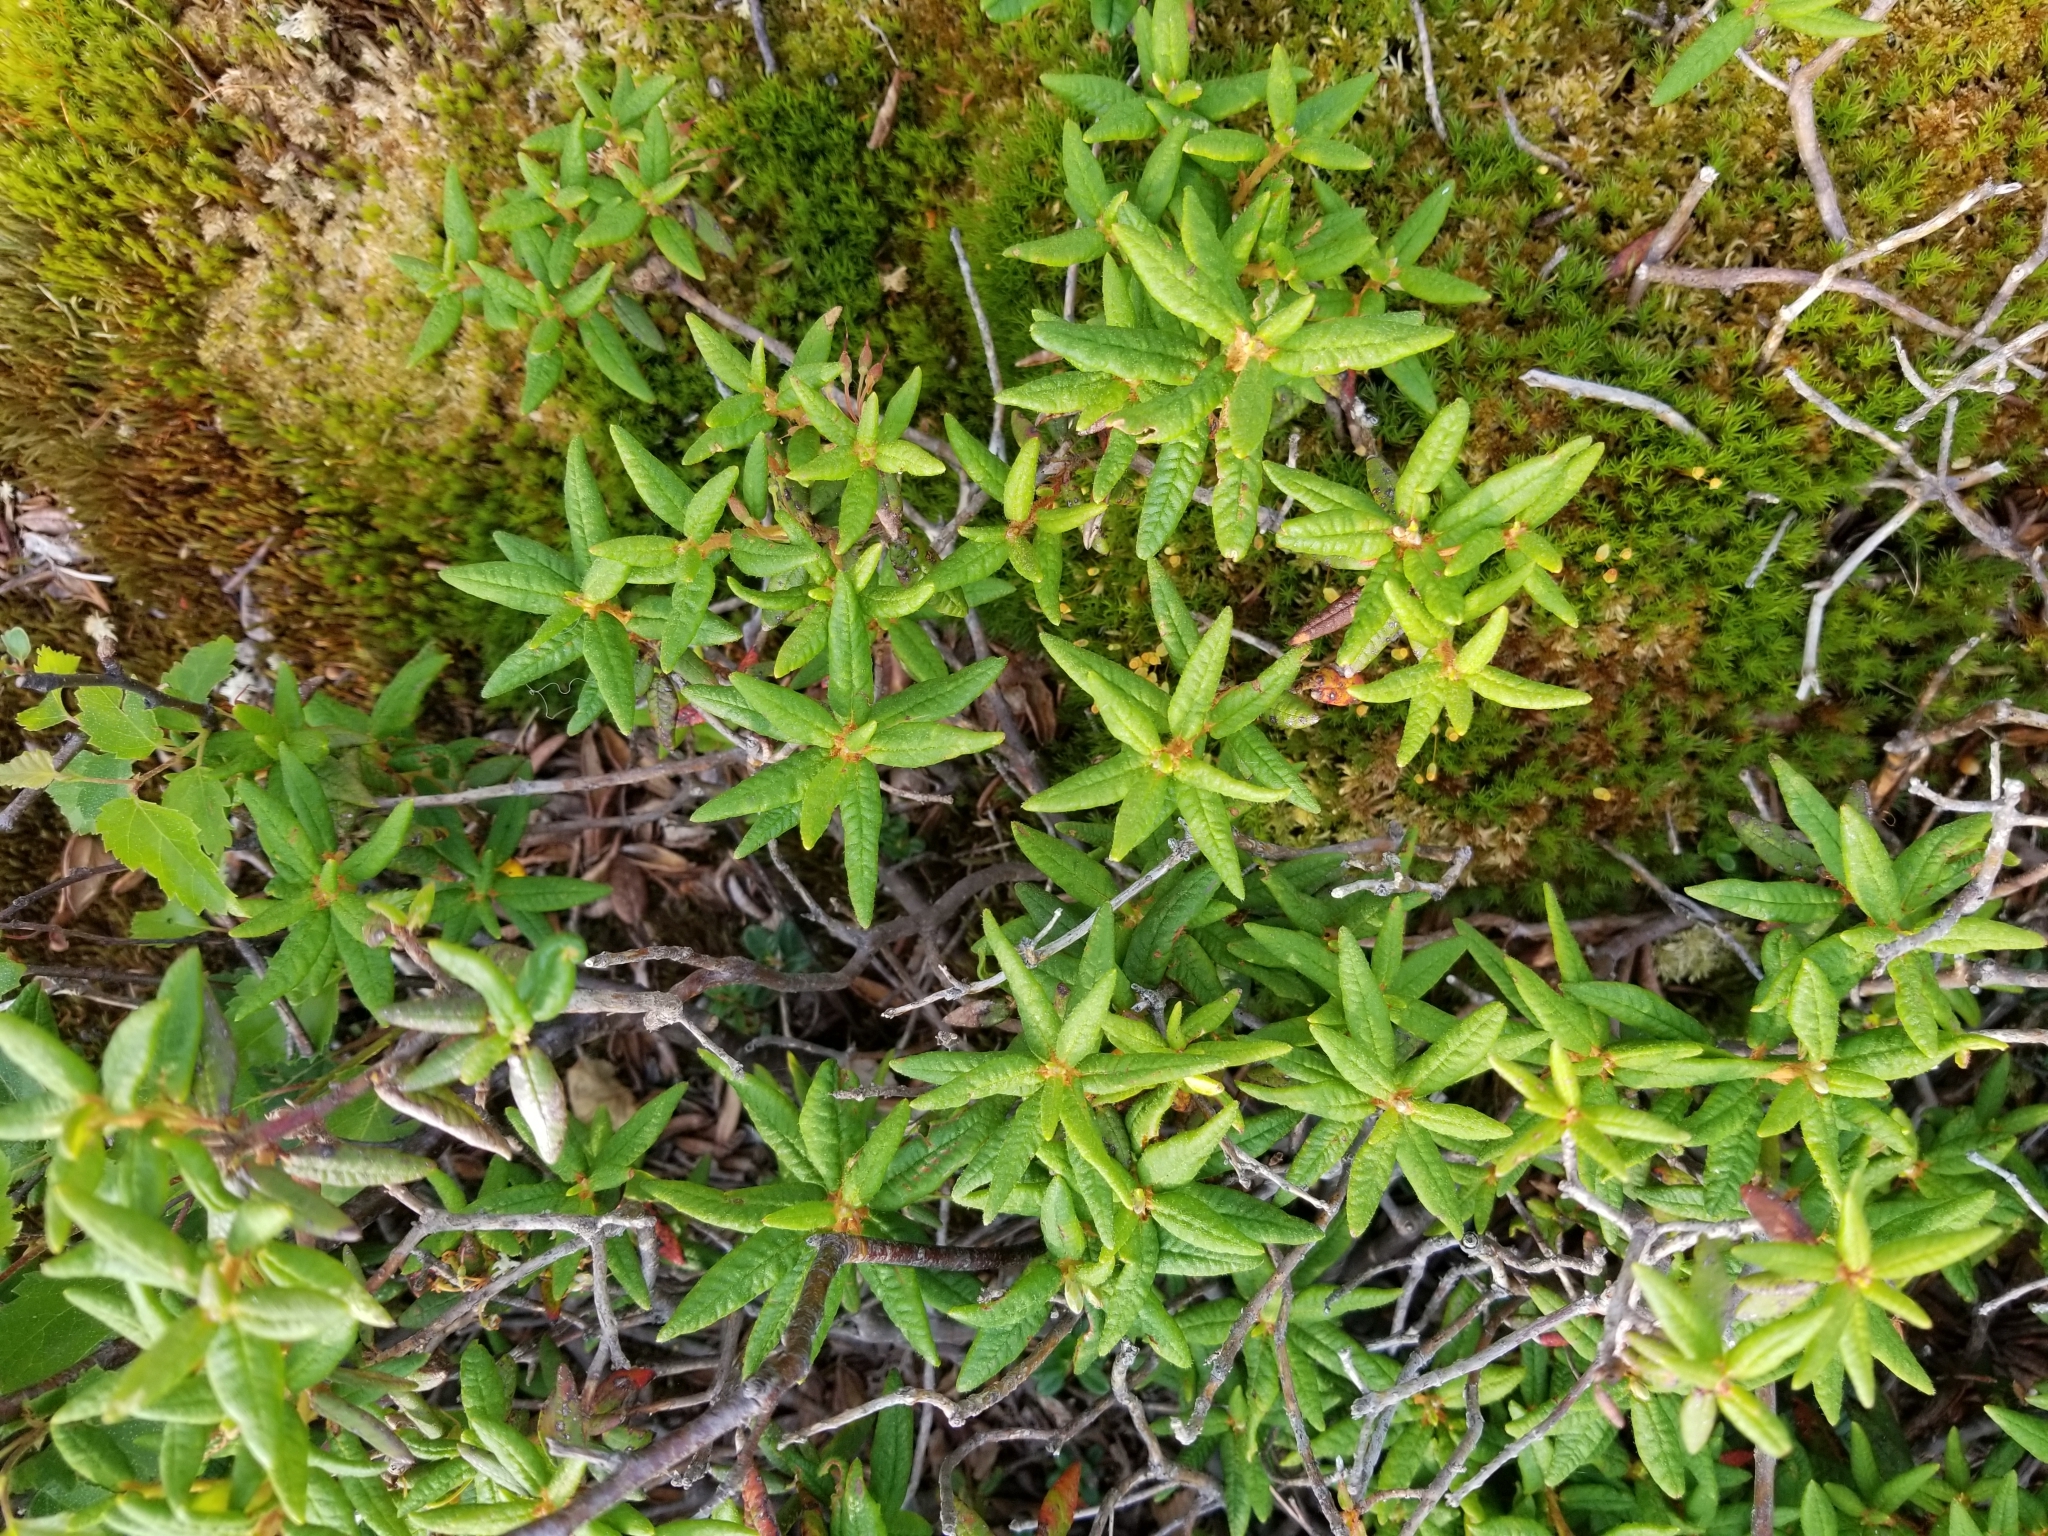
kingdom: Plantae
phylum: Tracheophyta
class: Magnoliopsida
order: Ericales
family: Ericaceae
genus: Rhododendron
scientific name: Rhododendron groenlandicum
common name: Bog labrador tea
